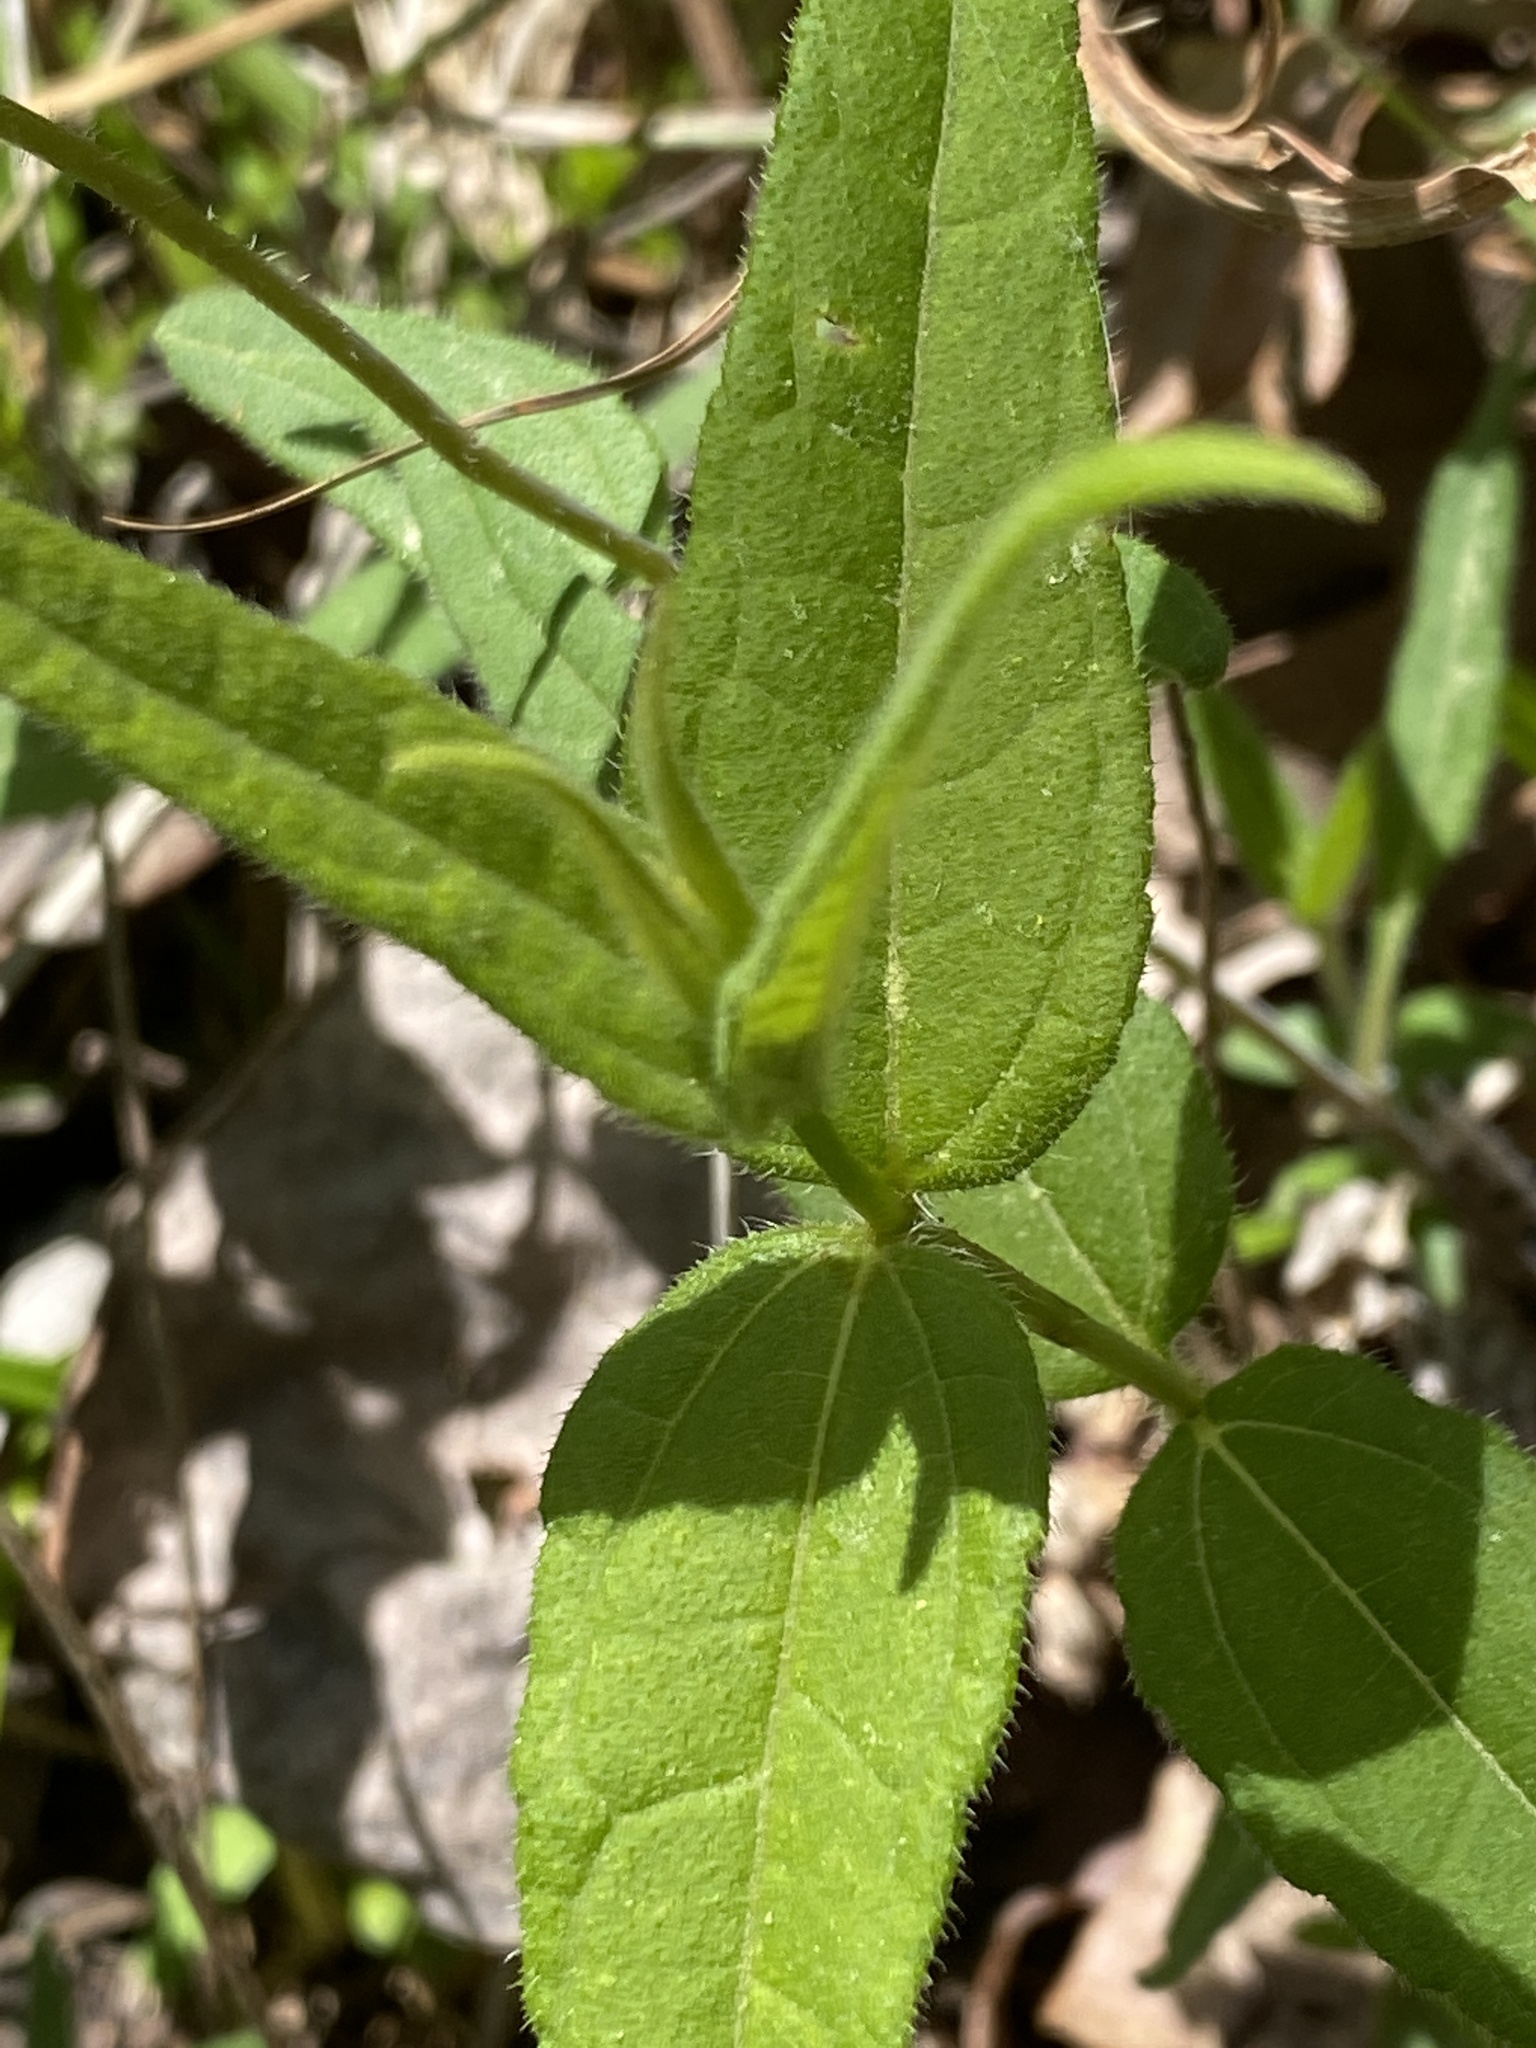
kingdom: Plantae
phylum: Tracheophyta
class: Magnoliopsida
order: Asterales
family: Asteraceae
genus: Helianthus
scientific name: Helianthus divaricatus
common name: Divergent sunflower
